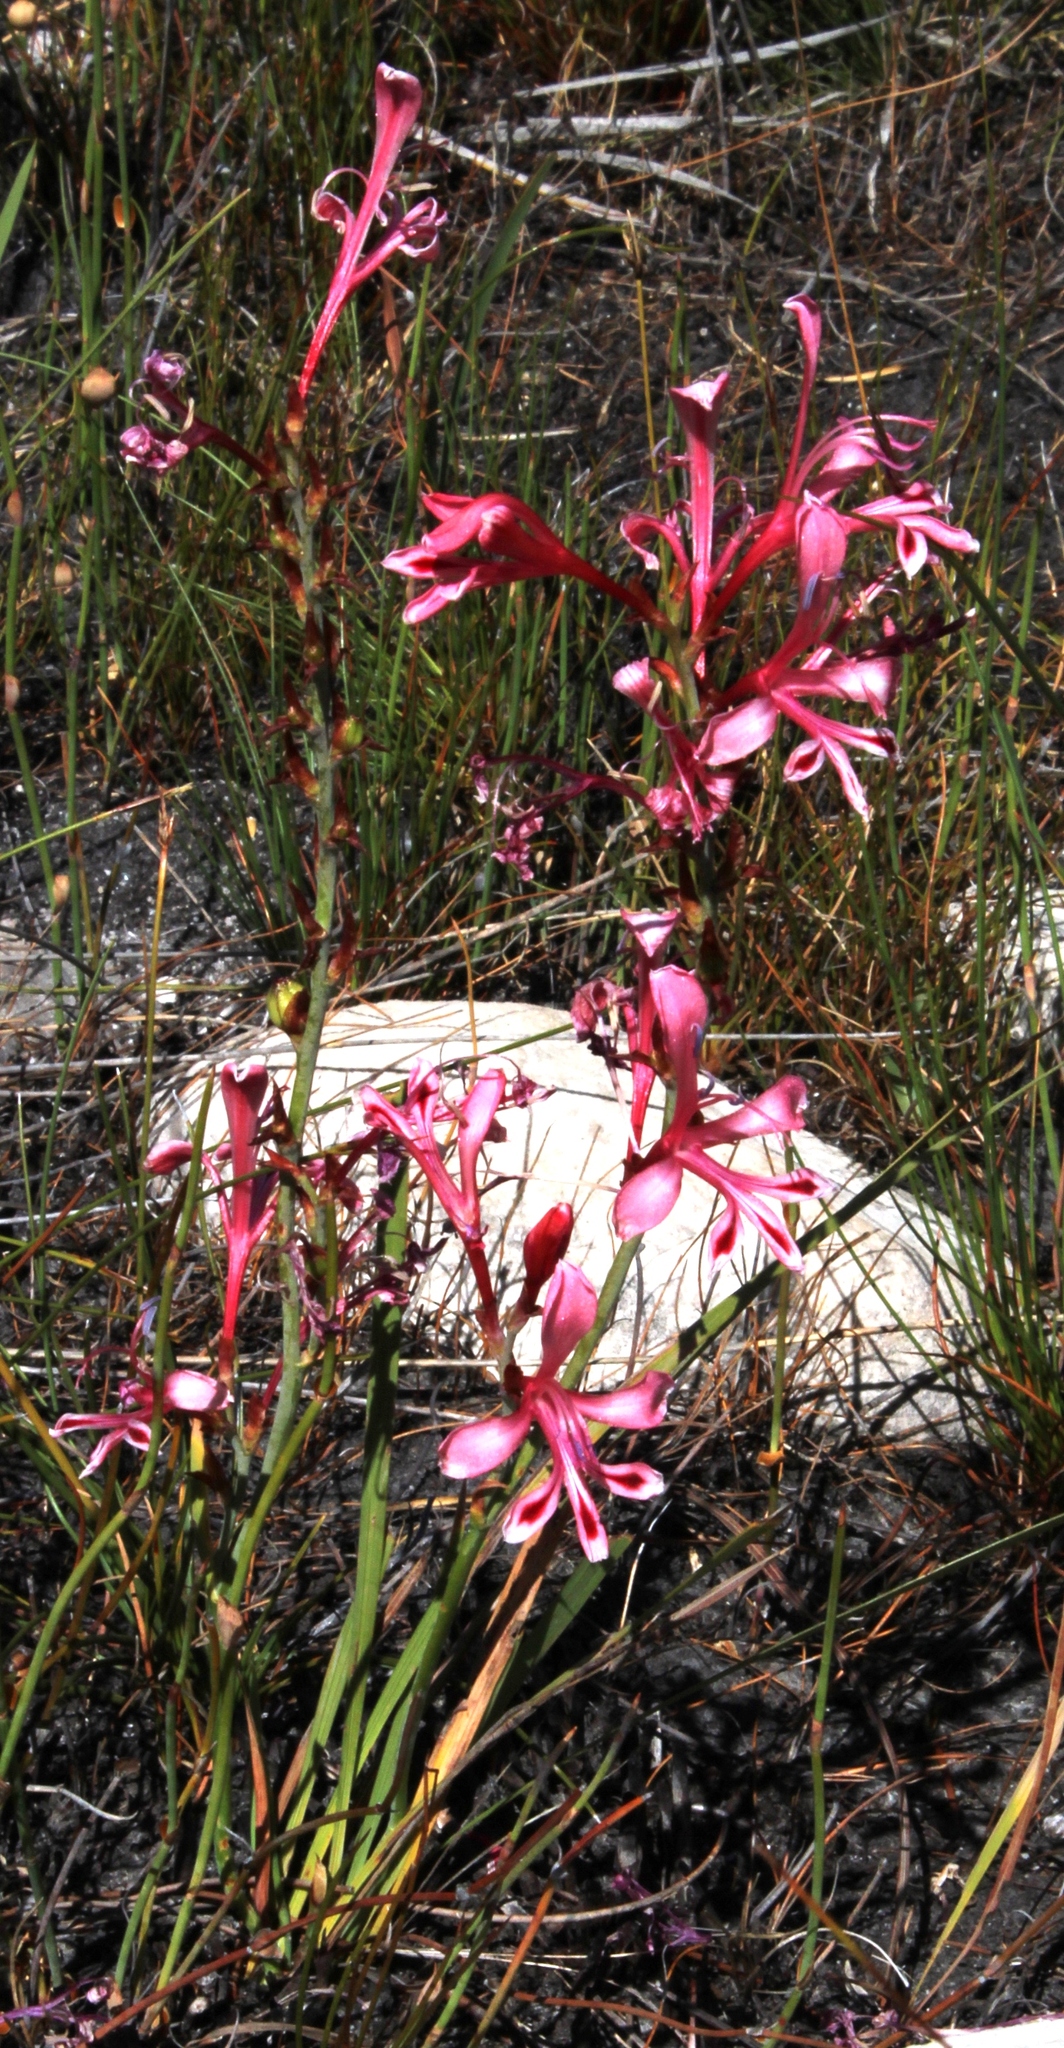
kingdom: Plantae
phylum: Tracheophyta
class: Liliopsida
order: Asparagales
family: Iridaceae
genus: Tritoniopsis
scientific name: Tritoniopsis pulchella
